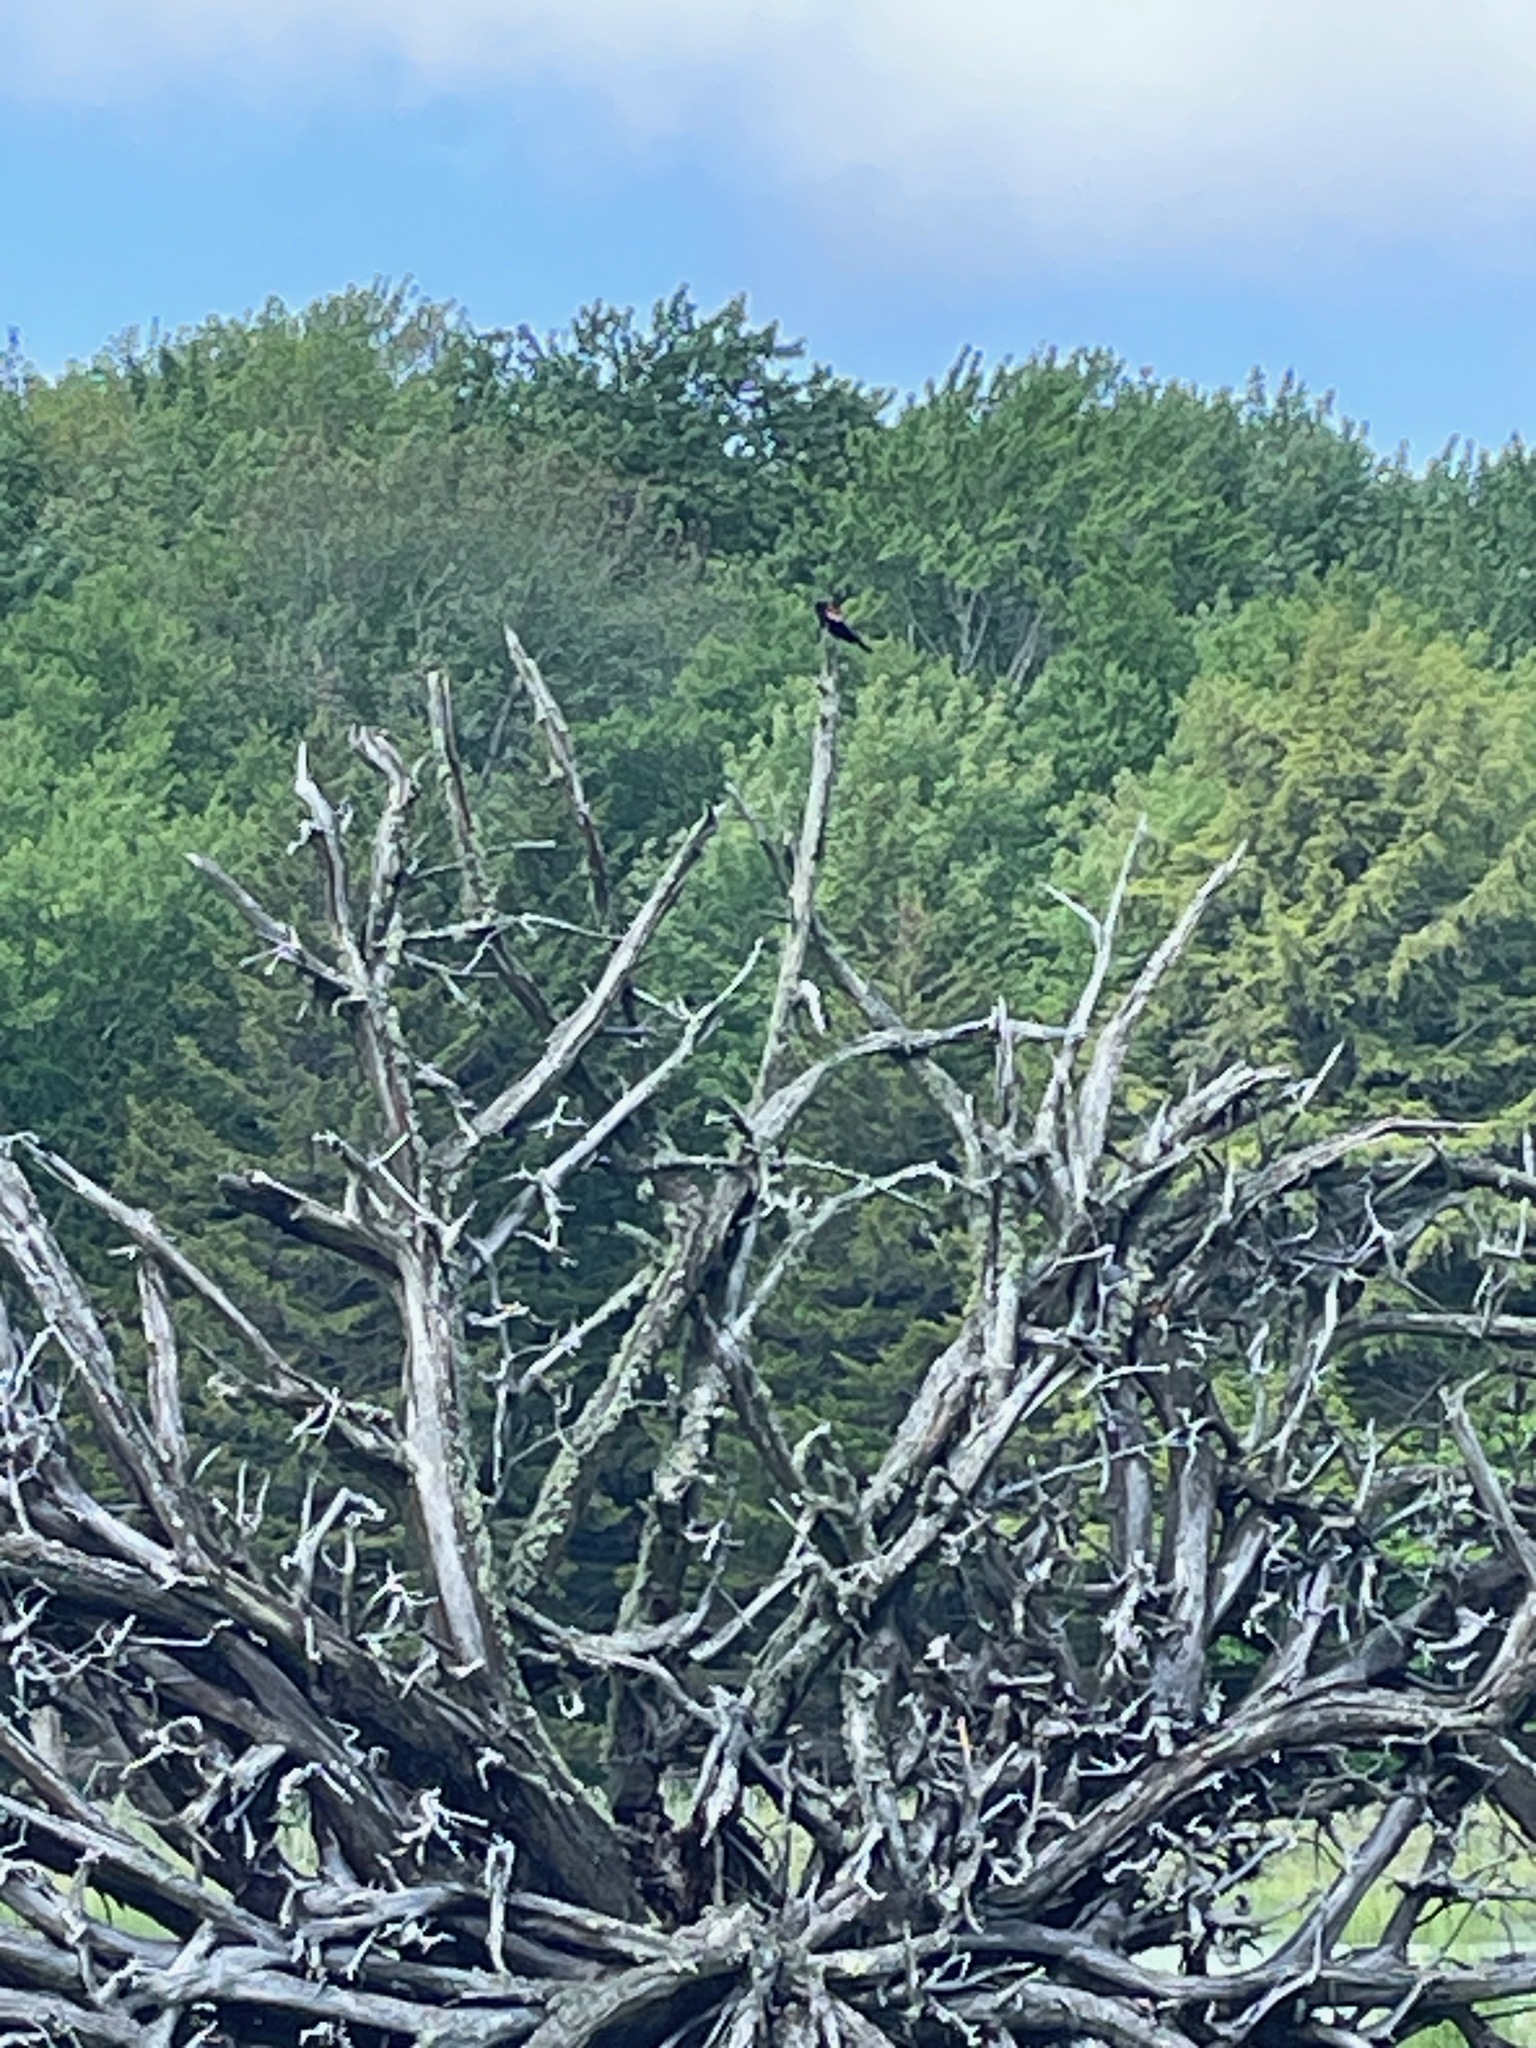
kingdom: Animalia
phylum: Chordata
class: Aves
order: Passeriformes
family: Icteridae
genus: Agelaius
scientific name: Agelaius phoeniceus
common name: Red-winged blackbird
